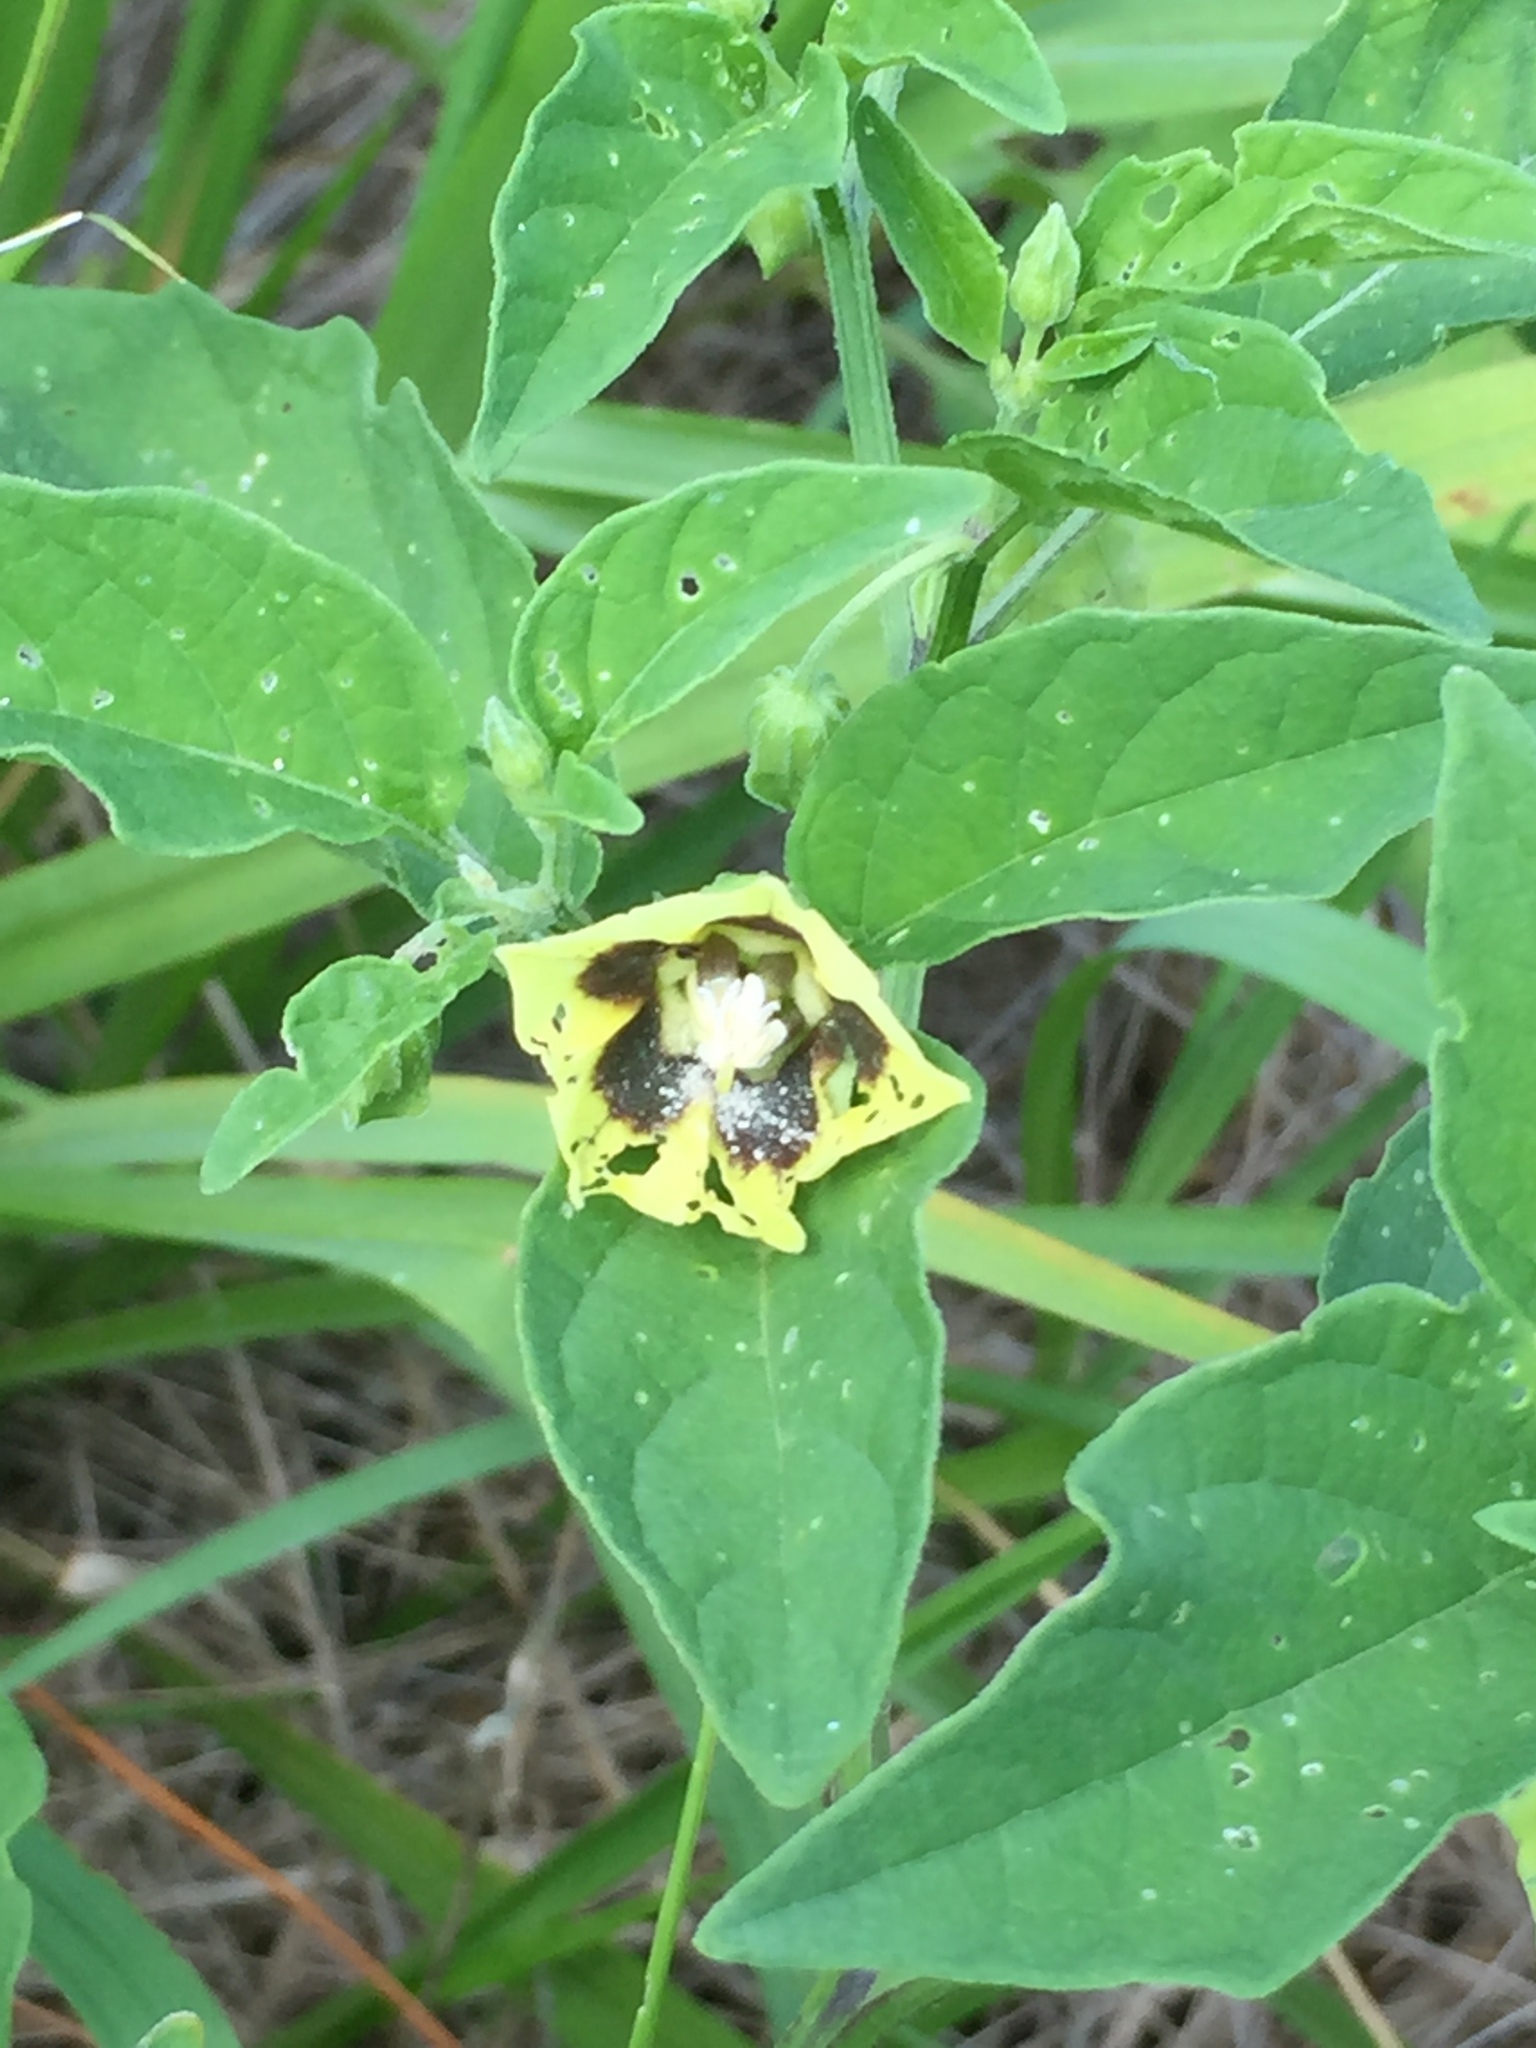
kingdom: Plantae
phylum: Tracheophyta
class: Magnoliopsida
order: Solanales
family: Solanaceae
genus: Physalis
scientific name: Physalis longifolia
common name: Common ground-cherry
